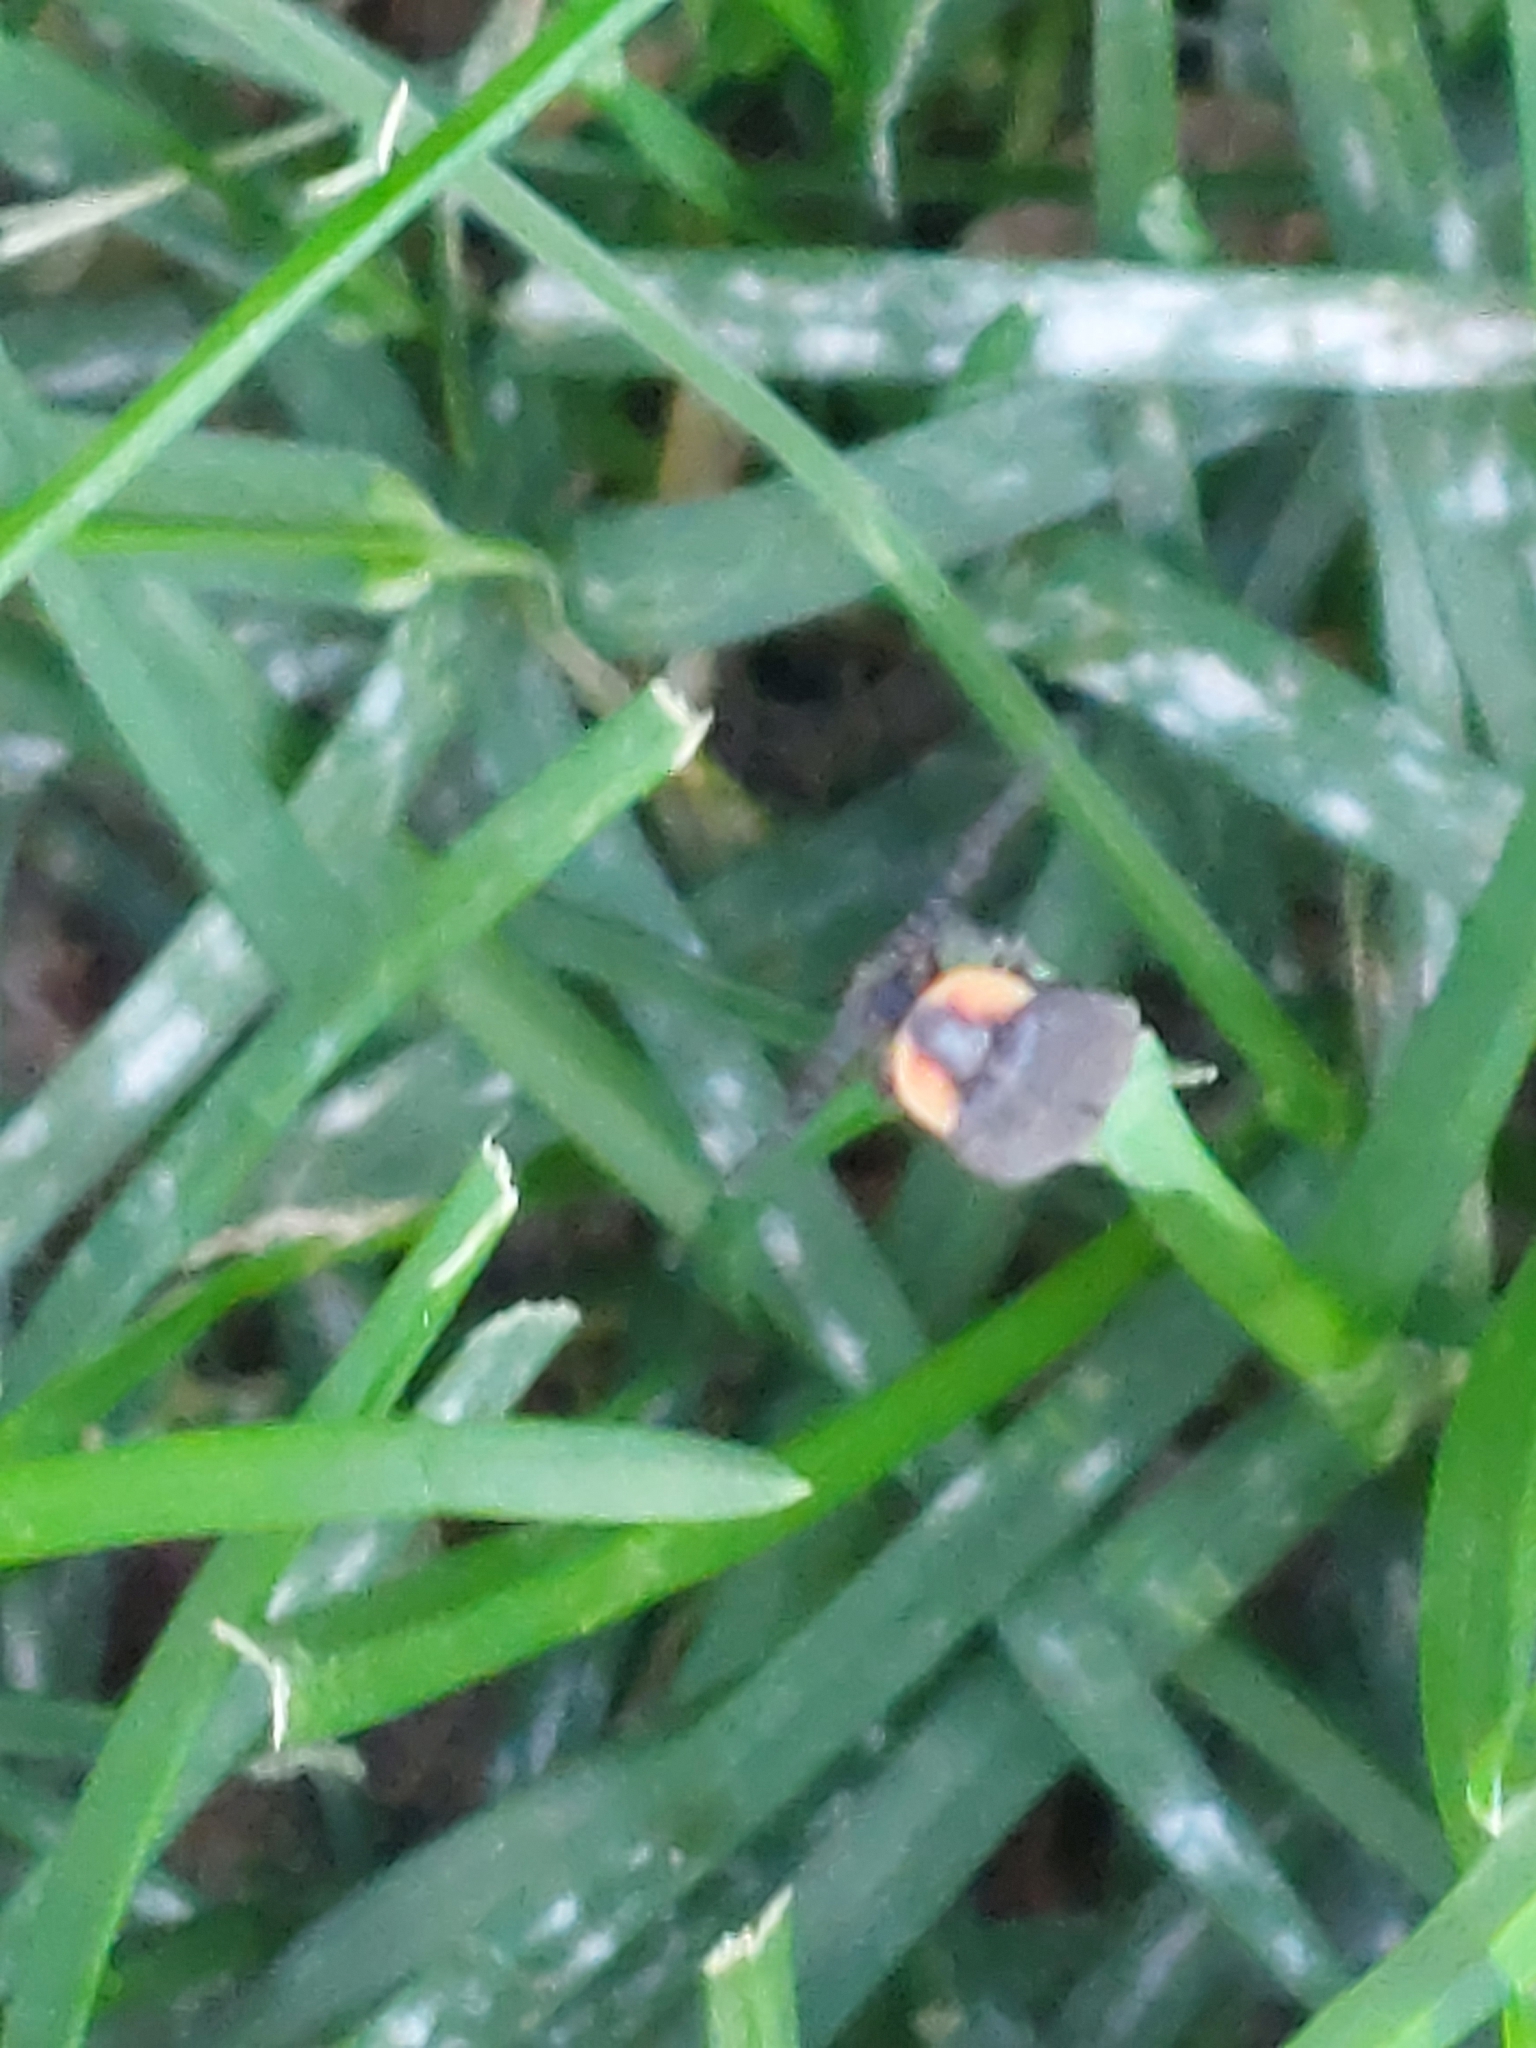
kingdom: Animalia
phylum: Arthropoda
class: Insecta
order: Coleoptera
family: Lampyridae
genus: Lucidota
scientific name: Lucidota atra
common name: Black firefly
